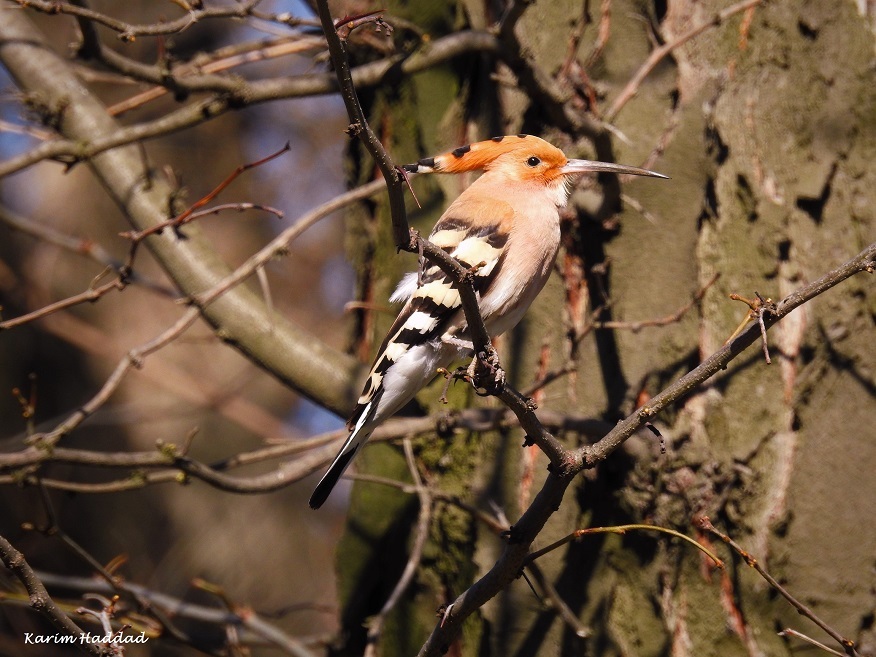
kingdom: Animalia
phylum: Chordata
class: Aves
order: Bucerotiformes
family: Upupidae
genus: Upupa
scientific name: Upupa epops
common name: Eurasian hoopoe
